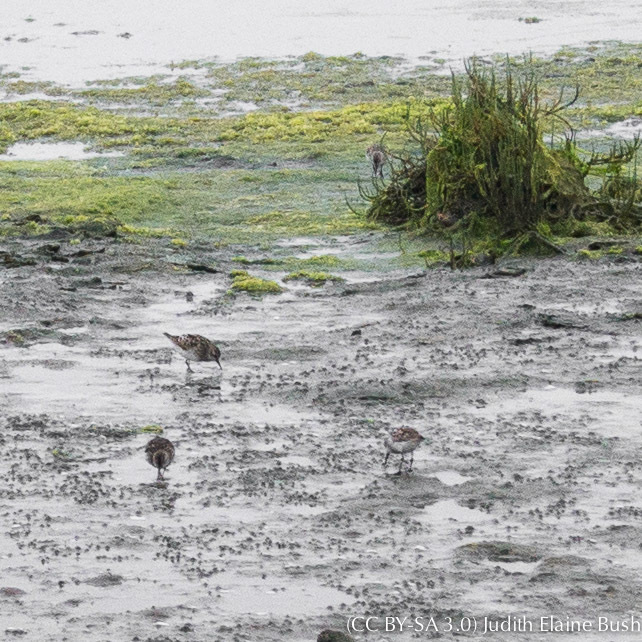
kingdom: Animalia
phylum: Chordata
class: Aves
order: Charadriiformes
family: Scolopacidae
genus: Calidris
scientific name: Calidris minutilla
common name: Least sandpiper
